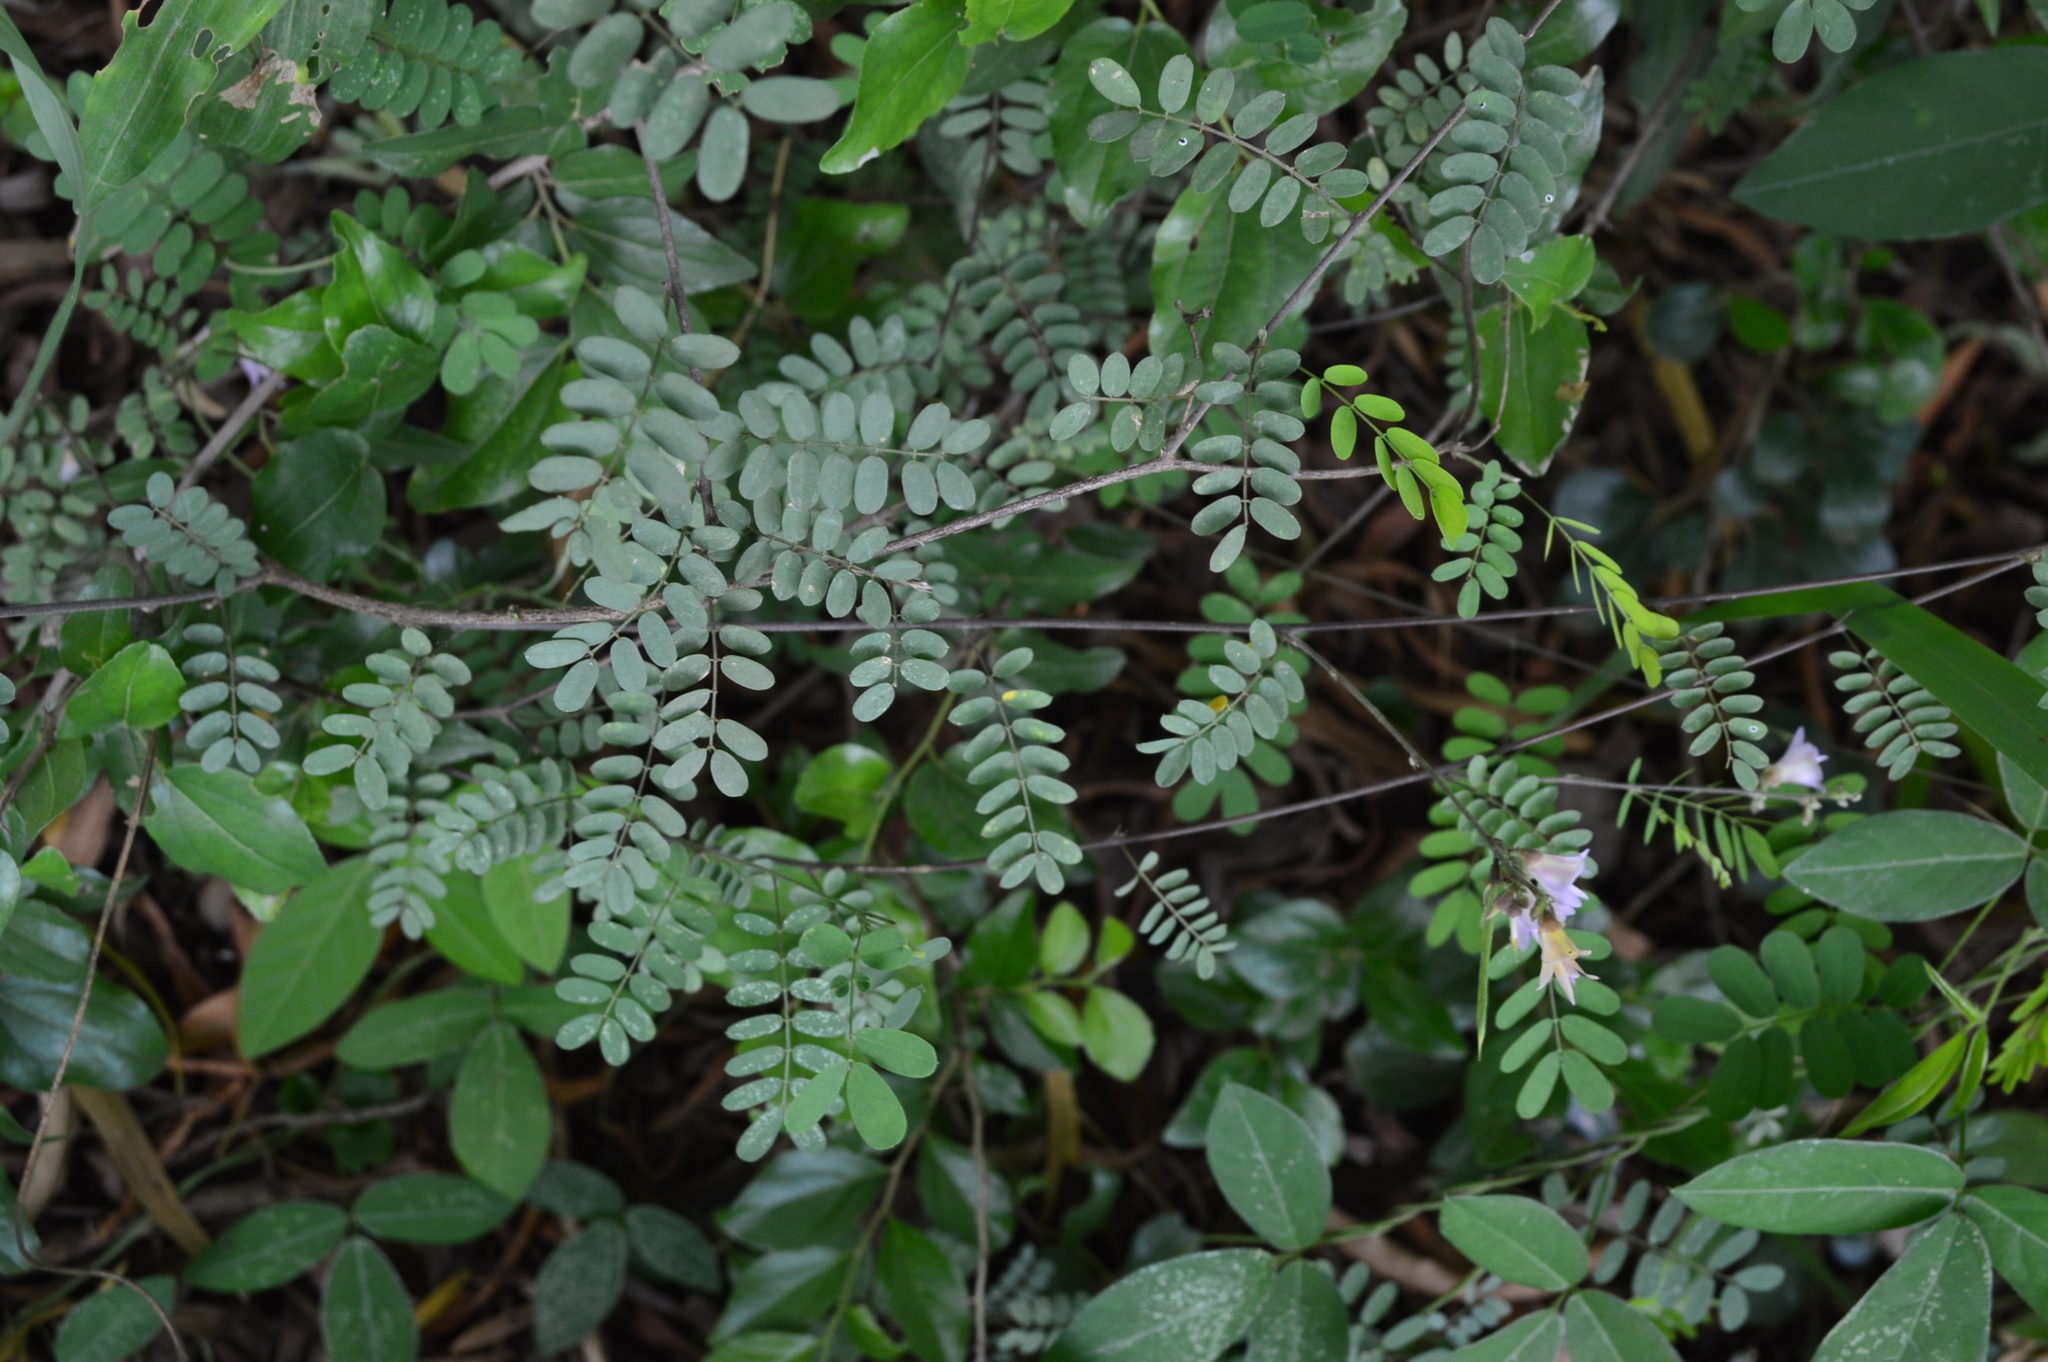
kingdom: Plantae
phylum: Tracheophyta
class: Magnoliopsida
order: Fabales
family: Fabaceae
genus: Abrus
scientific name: Abrus laevigatus
